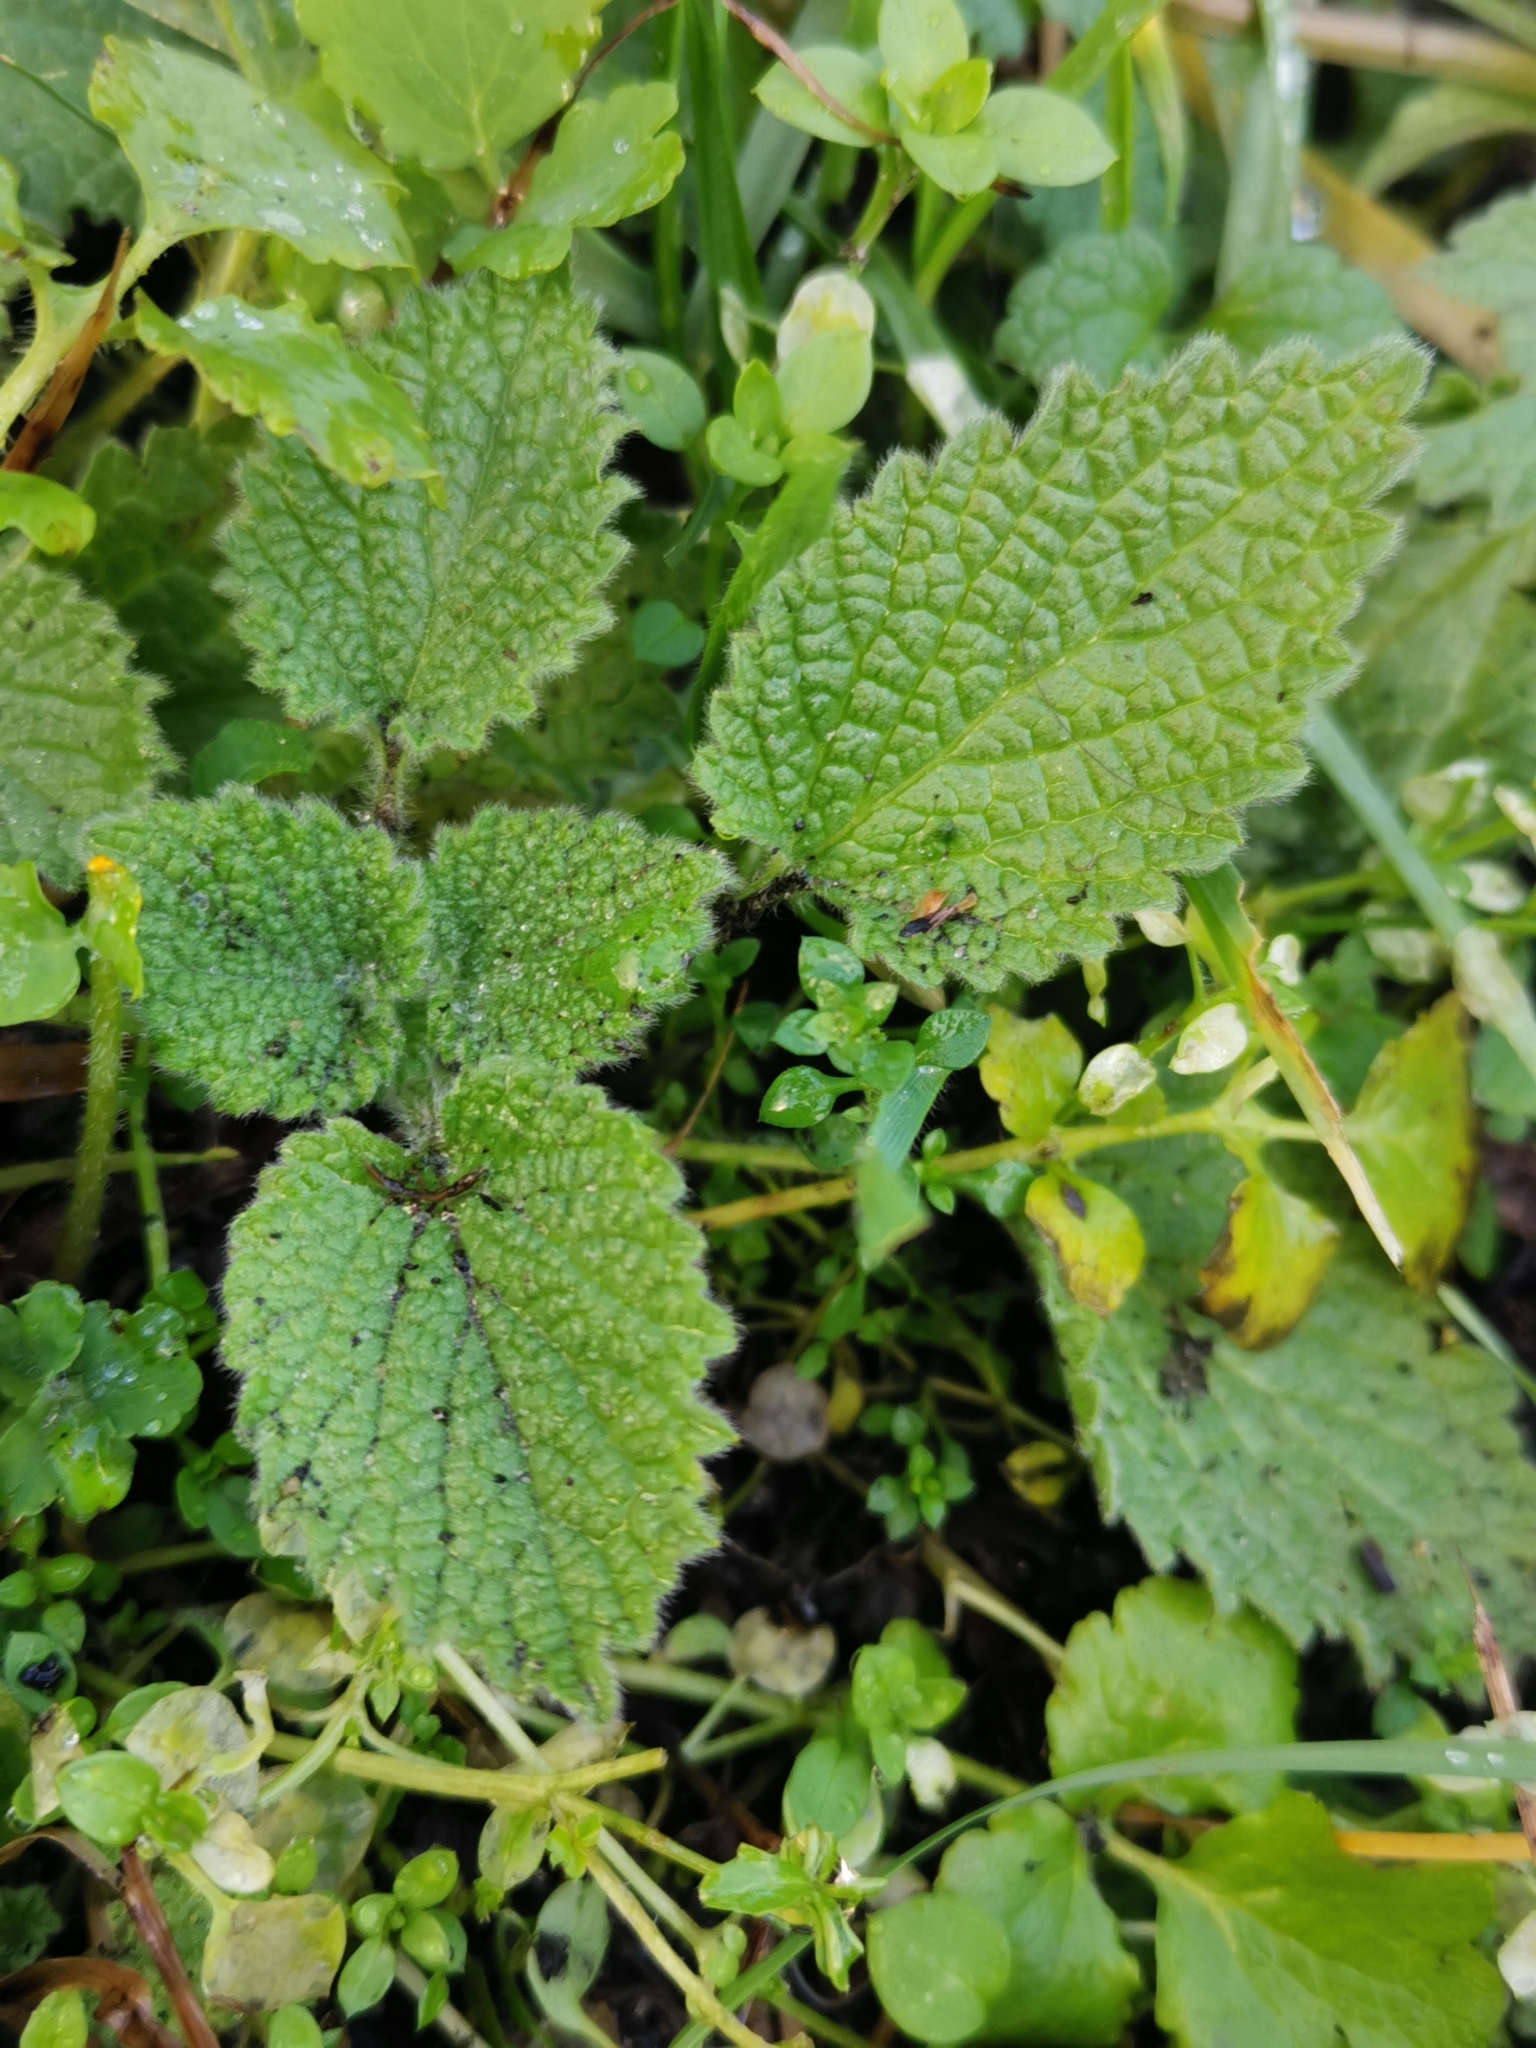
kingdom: Plantae
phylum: Tracheophyta
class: Magnoliopsida
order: Lamiales
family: Lamiaceae
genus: Ballota
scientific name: Ballota nigra
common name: Black horehound
